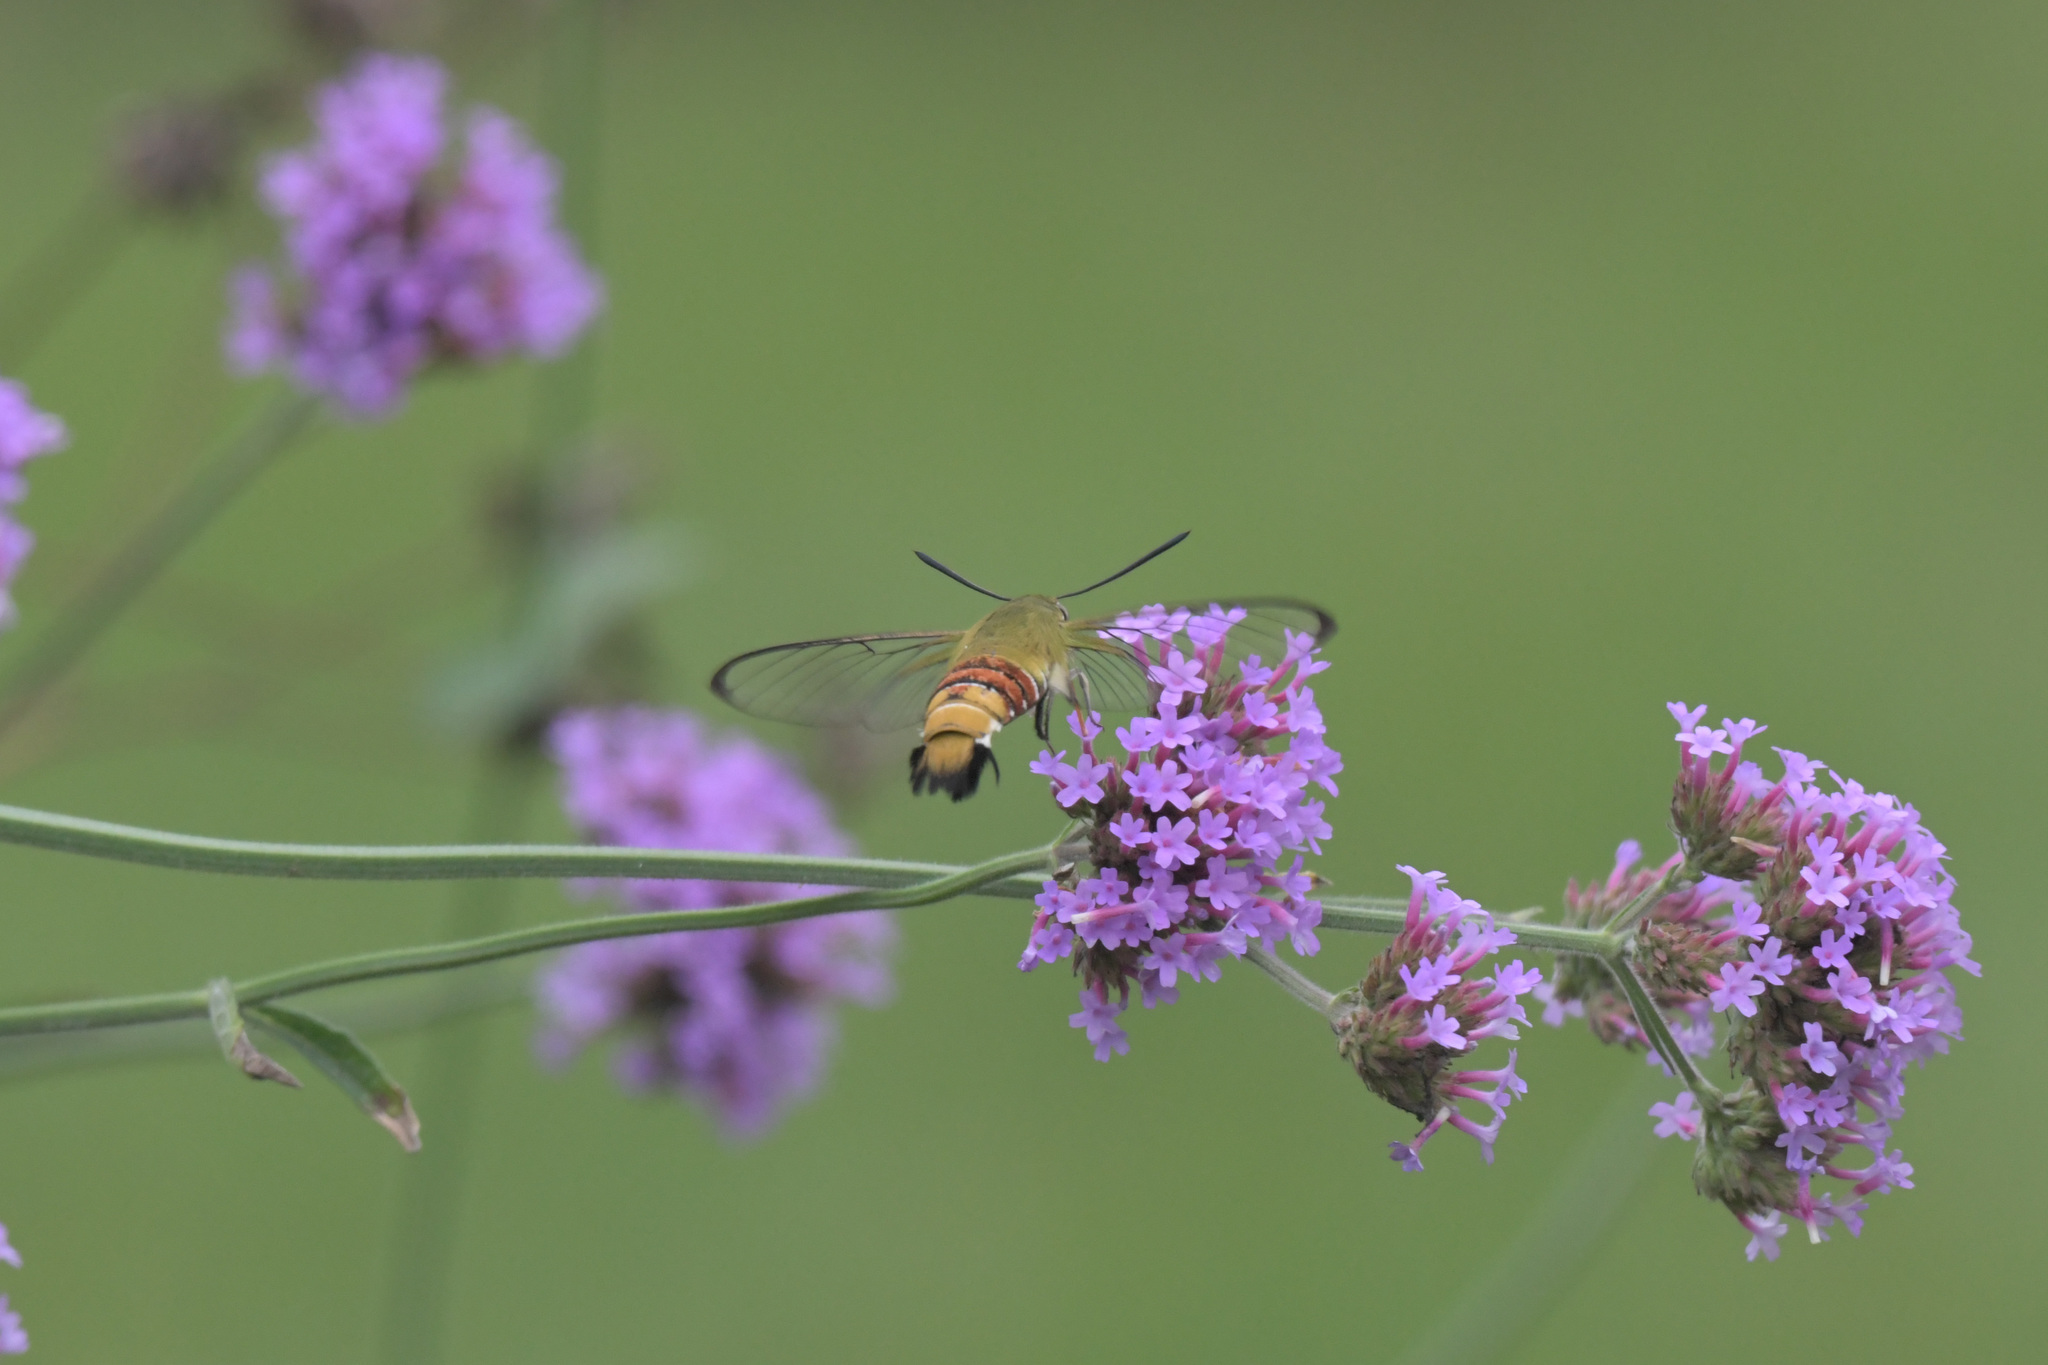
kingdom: Animalia
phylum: Arthropoda
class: Insecta
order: Lepidoptera
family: Sphingidae
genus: Cephonodes
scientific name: Cephonodes hylas
